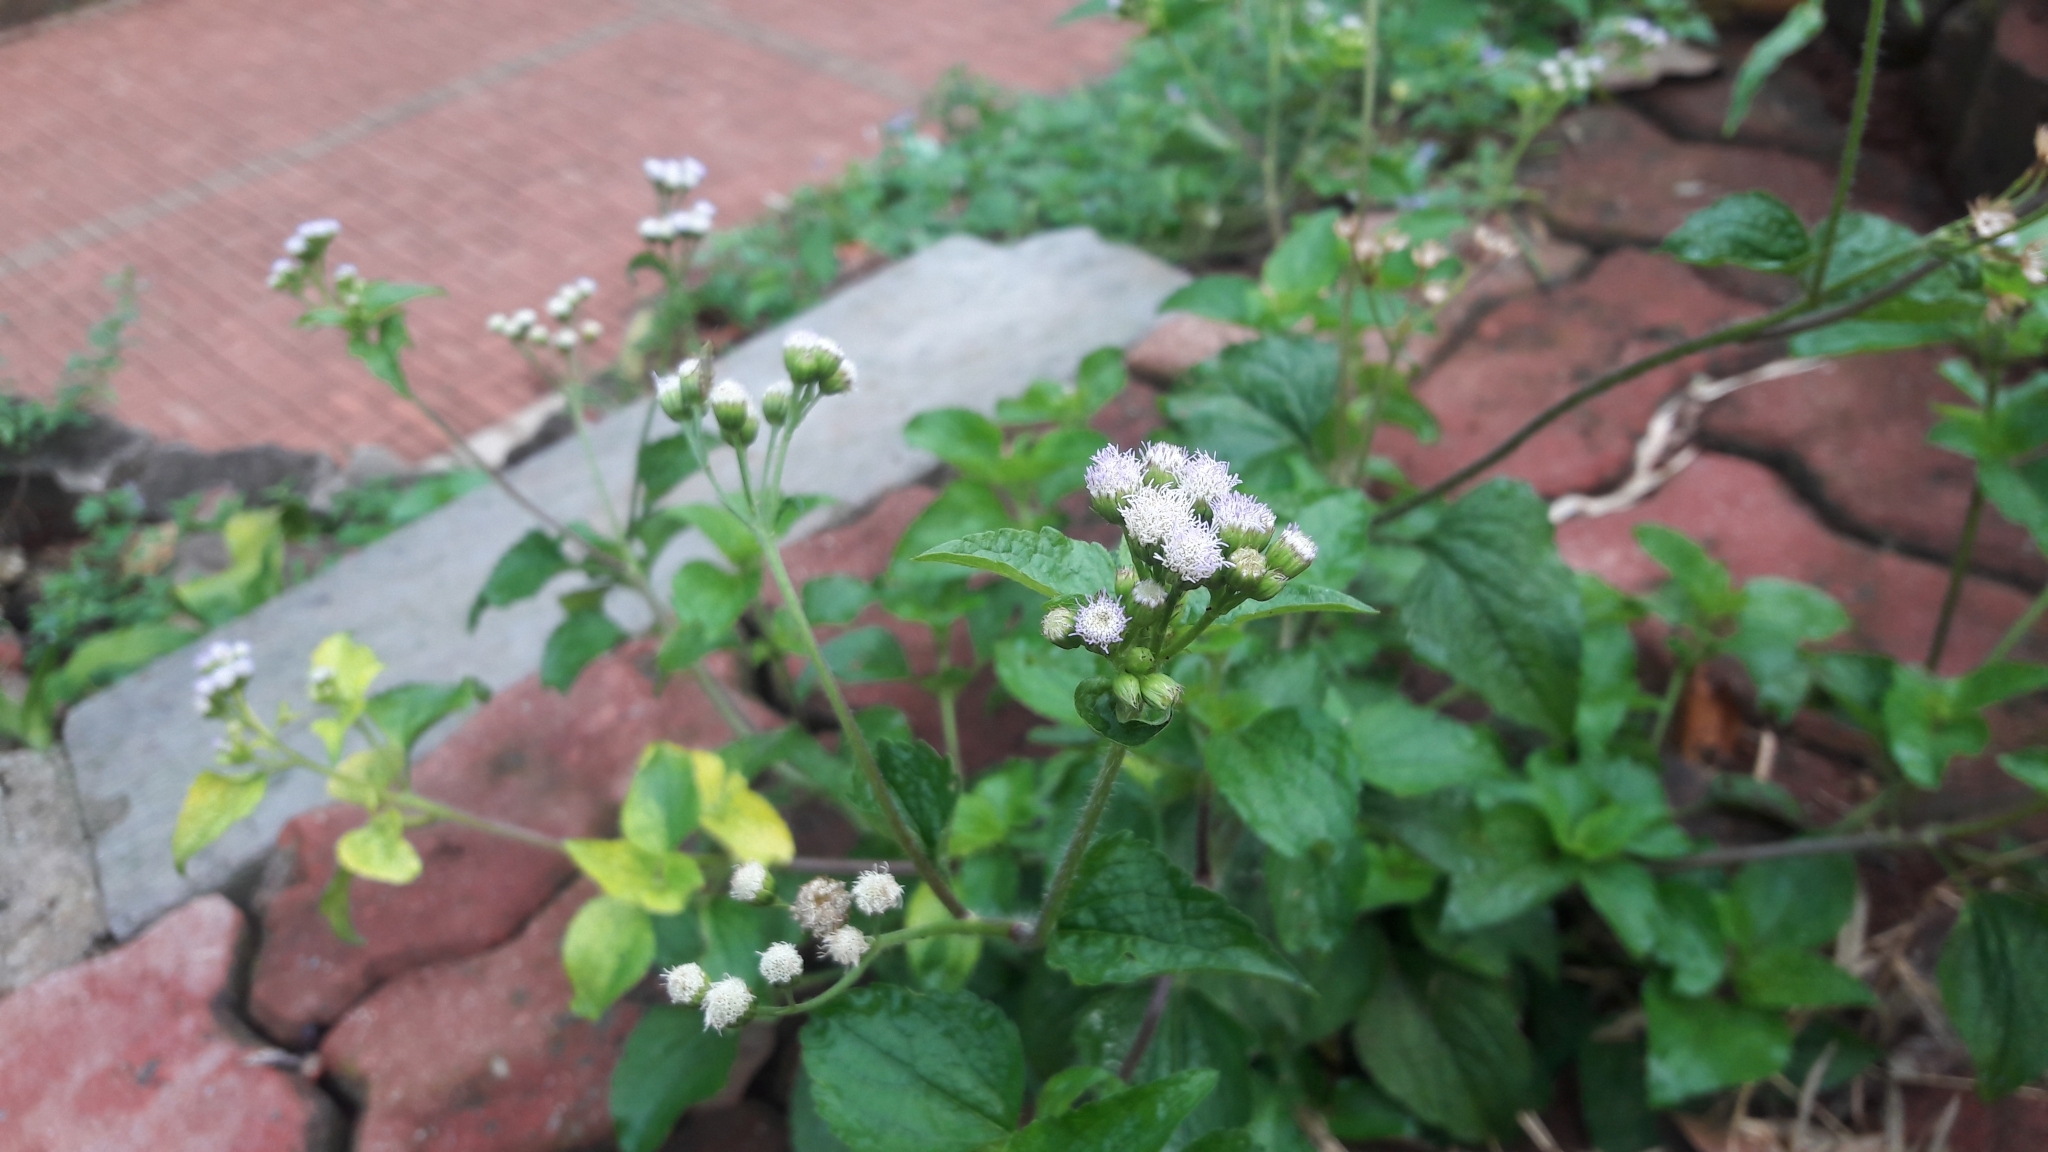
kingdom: Plantae
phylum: Tracheophyta
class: Magnoliopsida
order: Asterales
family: Asteraceae
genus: Ageratum
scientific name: Ageratum conyzoides
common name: Tropical whiteweed
